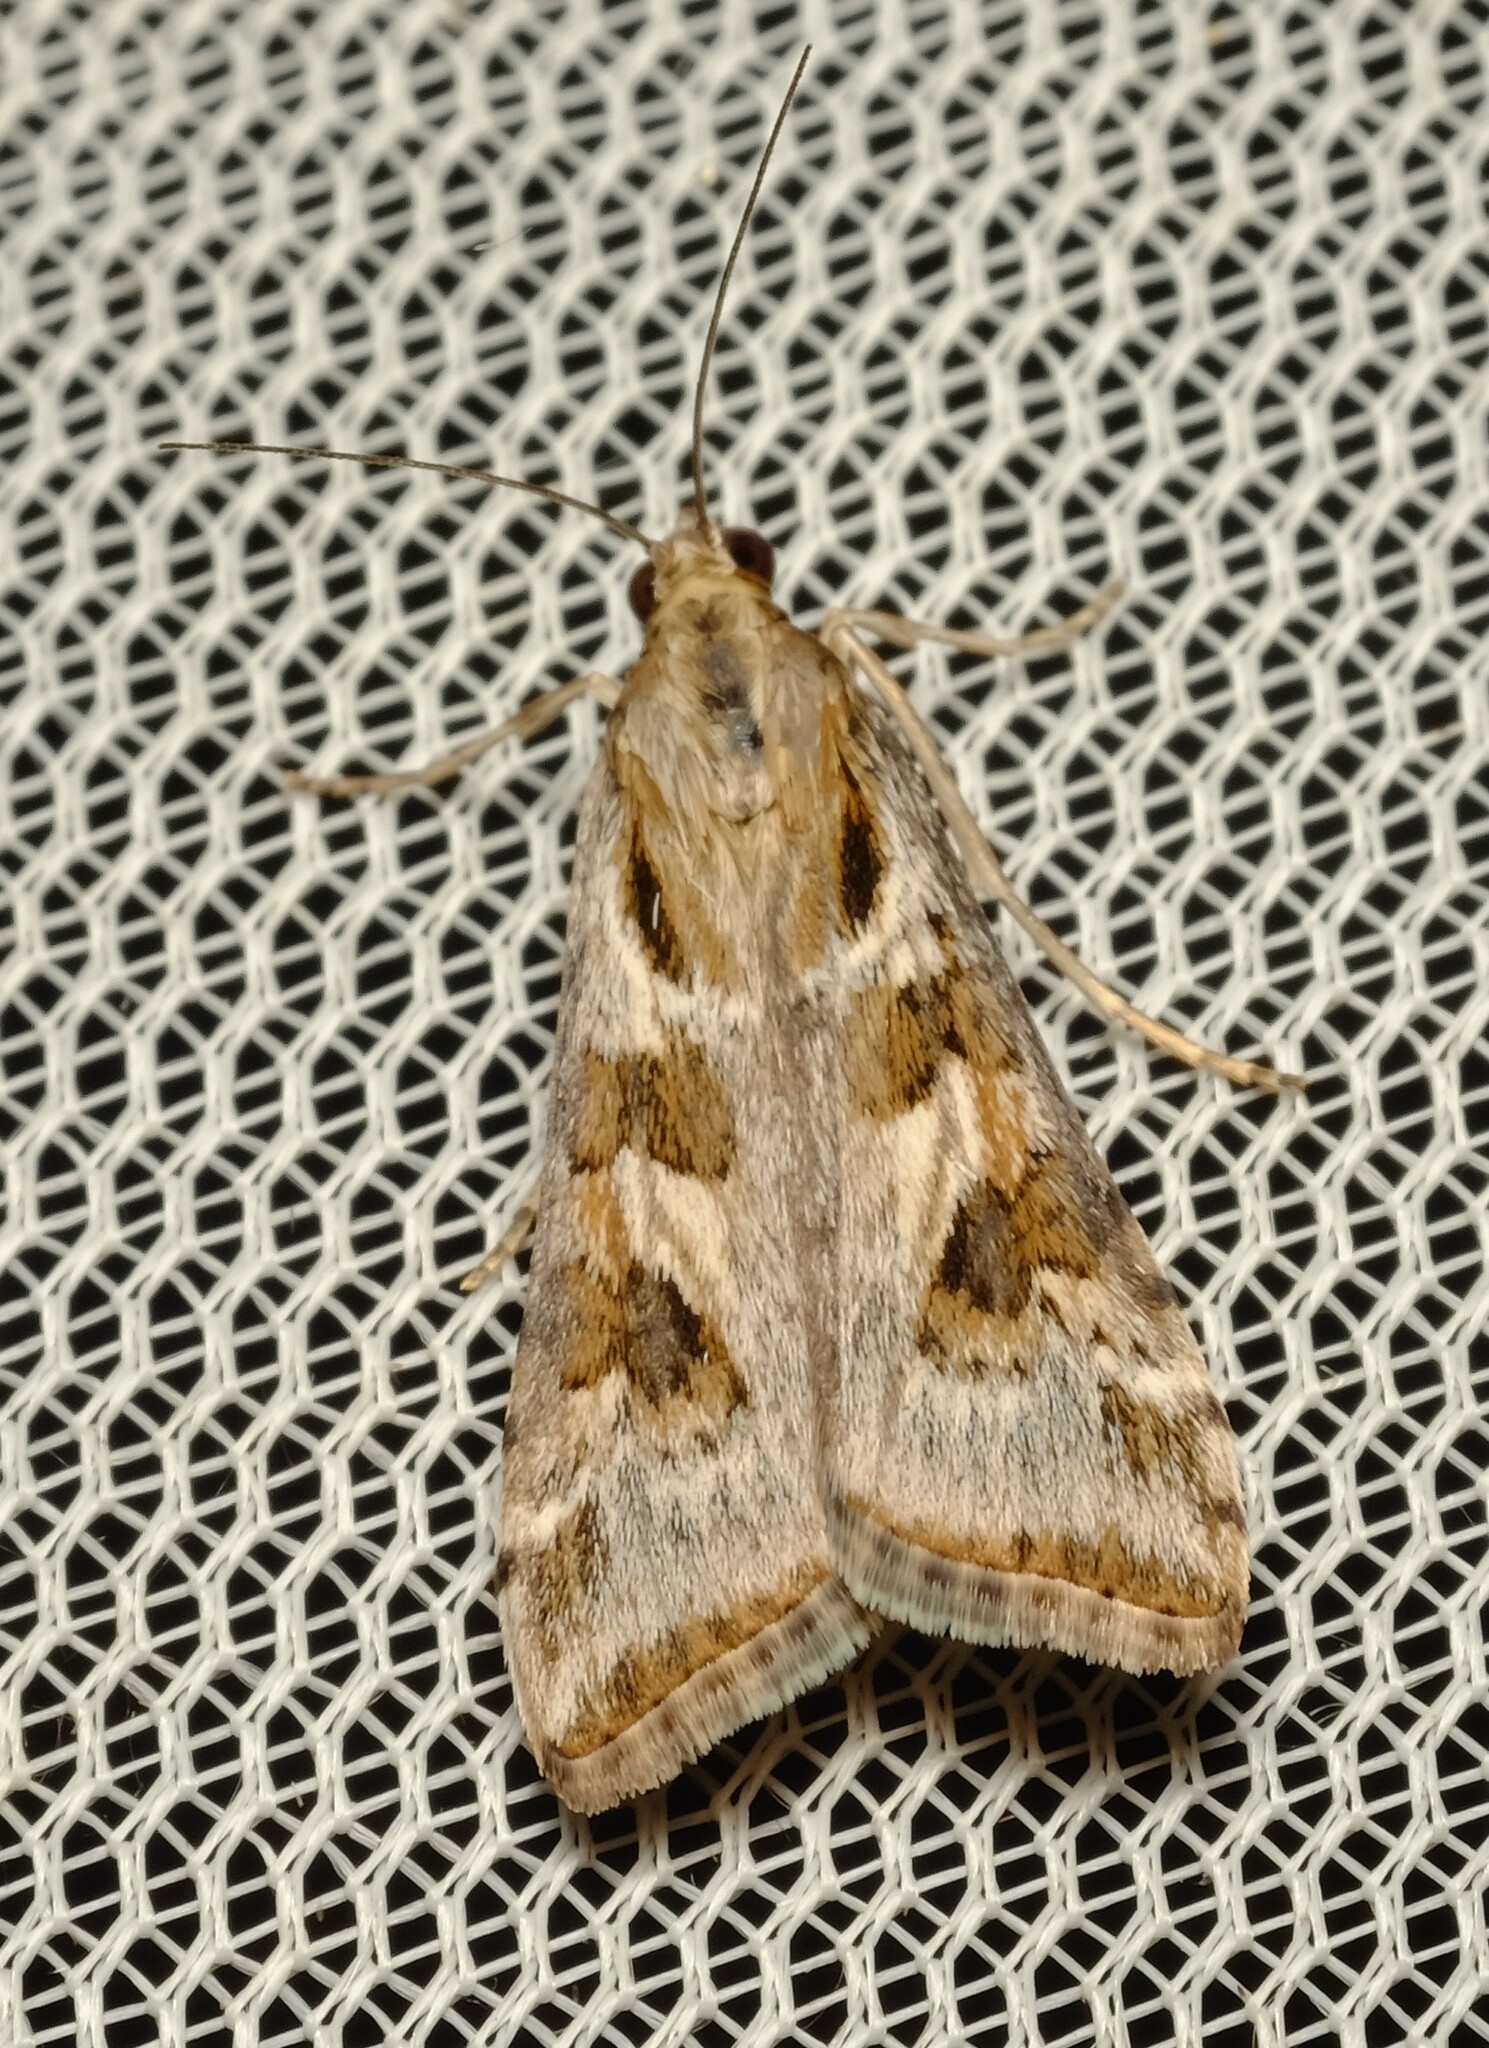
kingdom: Animalia
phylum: Arthropoda
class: Insecta
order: Lepidoptera
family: Crambidae
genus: Nomophila
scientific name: Nomophila corticalis
